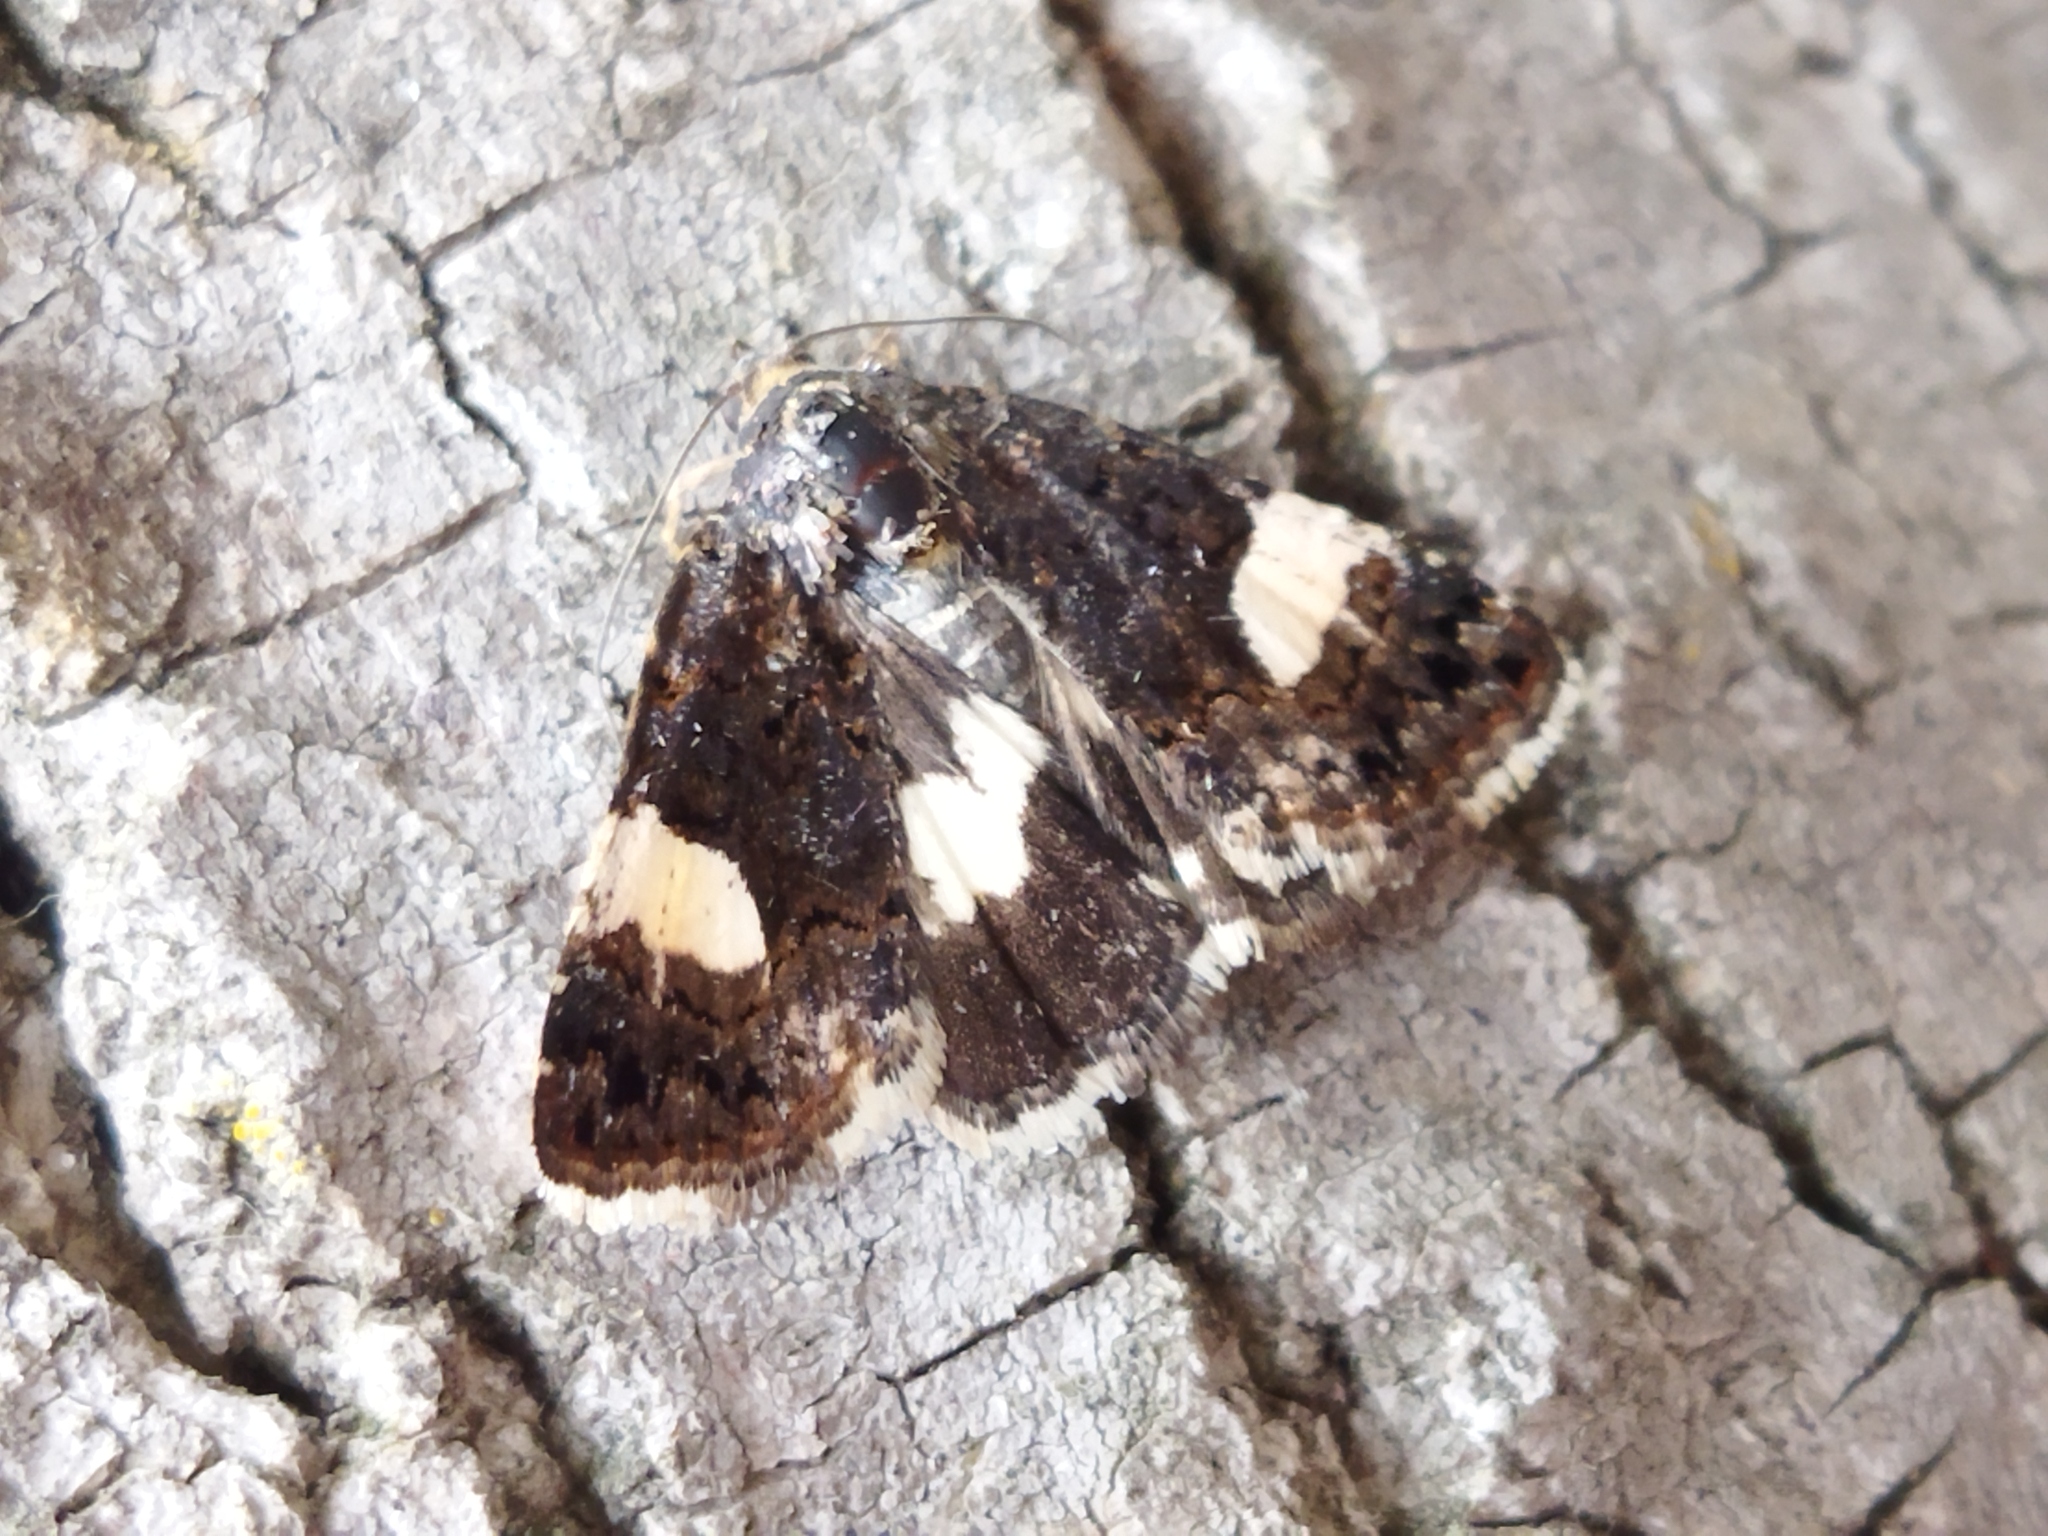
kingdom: Animalia
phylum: Arthropoda
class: Insecta
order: Lepidoptera
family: Erebidae
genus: Tyta
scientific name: Tyta luctuosa
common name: Four-spotted
